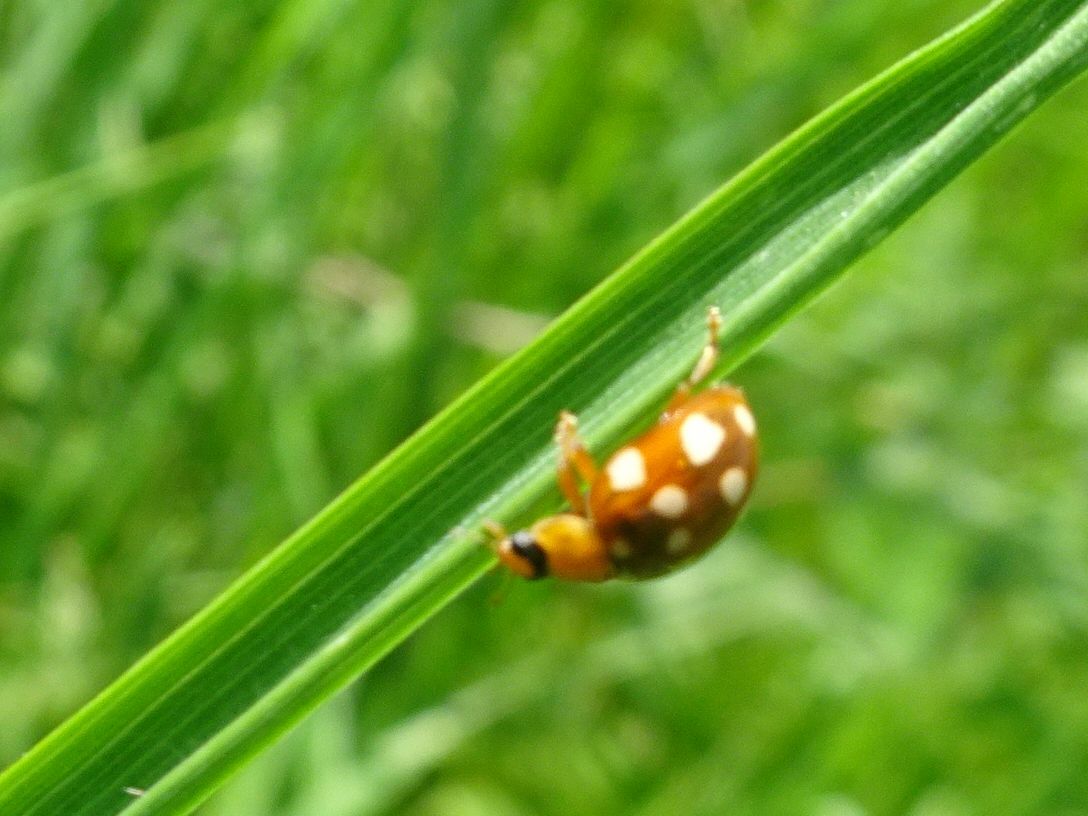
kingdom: Animalia
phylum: Arthropoda
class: Insecta
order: Coleoptera
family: Coccinellidae
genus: Calvia
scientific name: Calvia quatuordecimguttata
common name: Cream-spot ladybird
